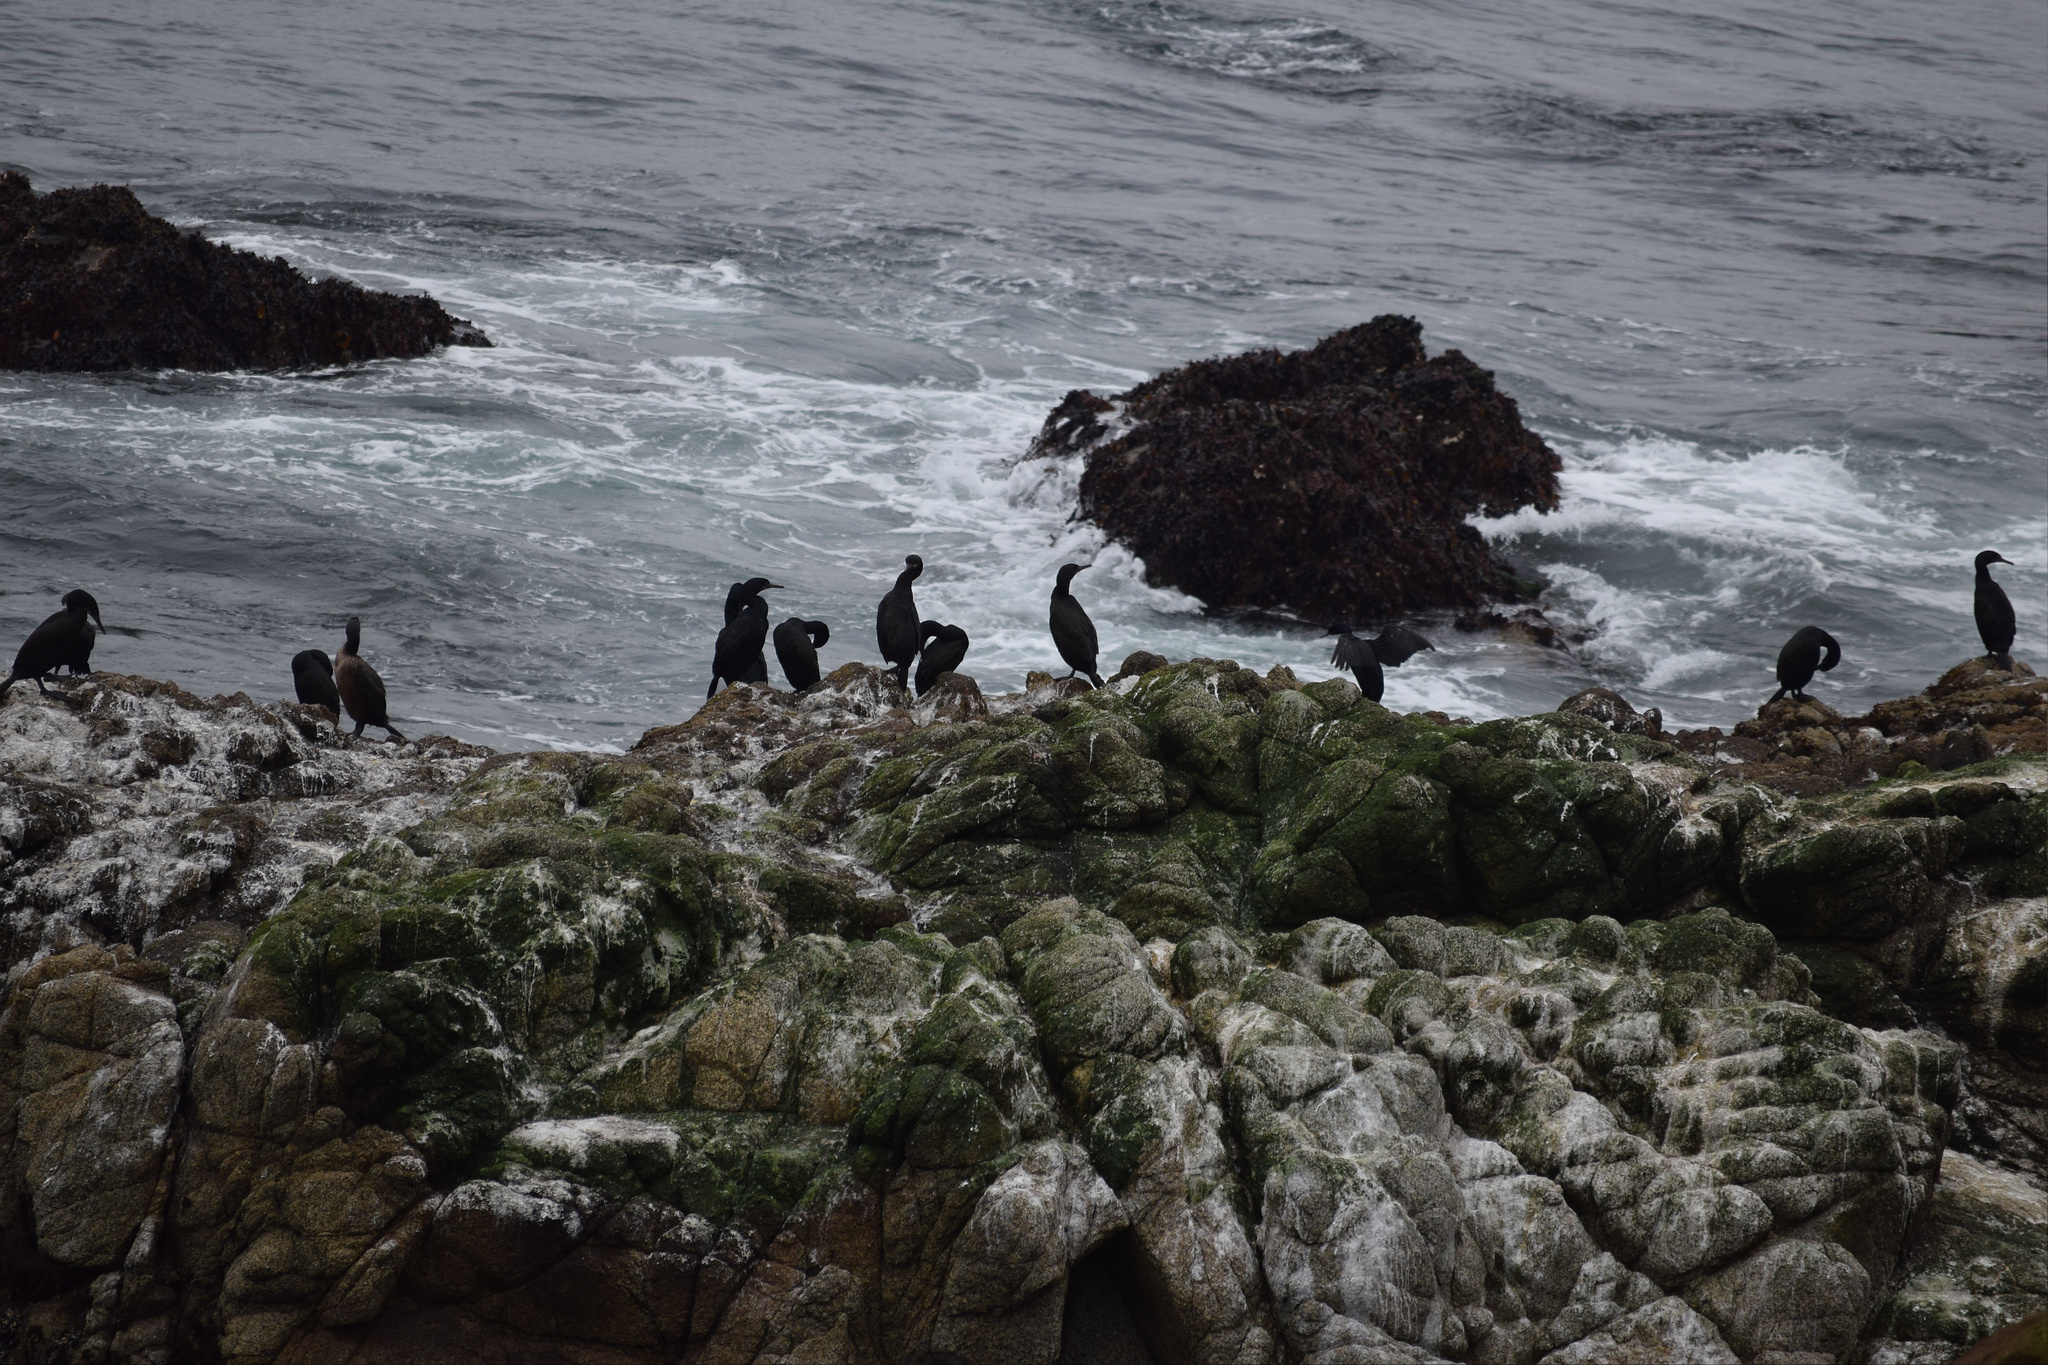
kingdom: Animalia
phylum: Chordata
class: Aves
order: Suliformes
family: Phalacrocoracidae
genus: Urile
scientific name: Urile penicillatus
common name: Brandt's cormorant
